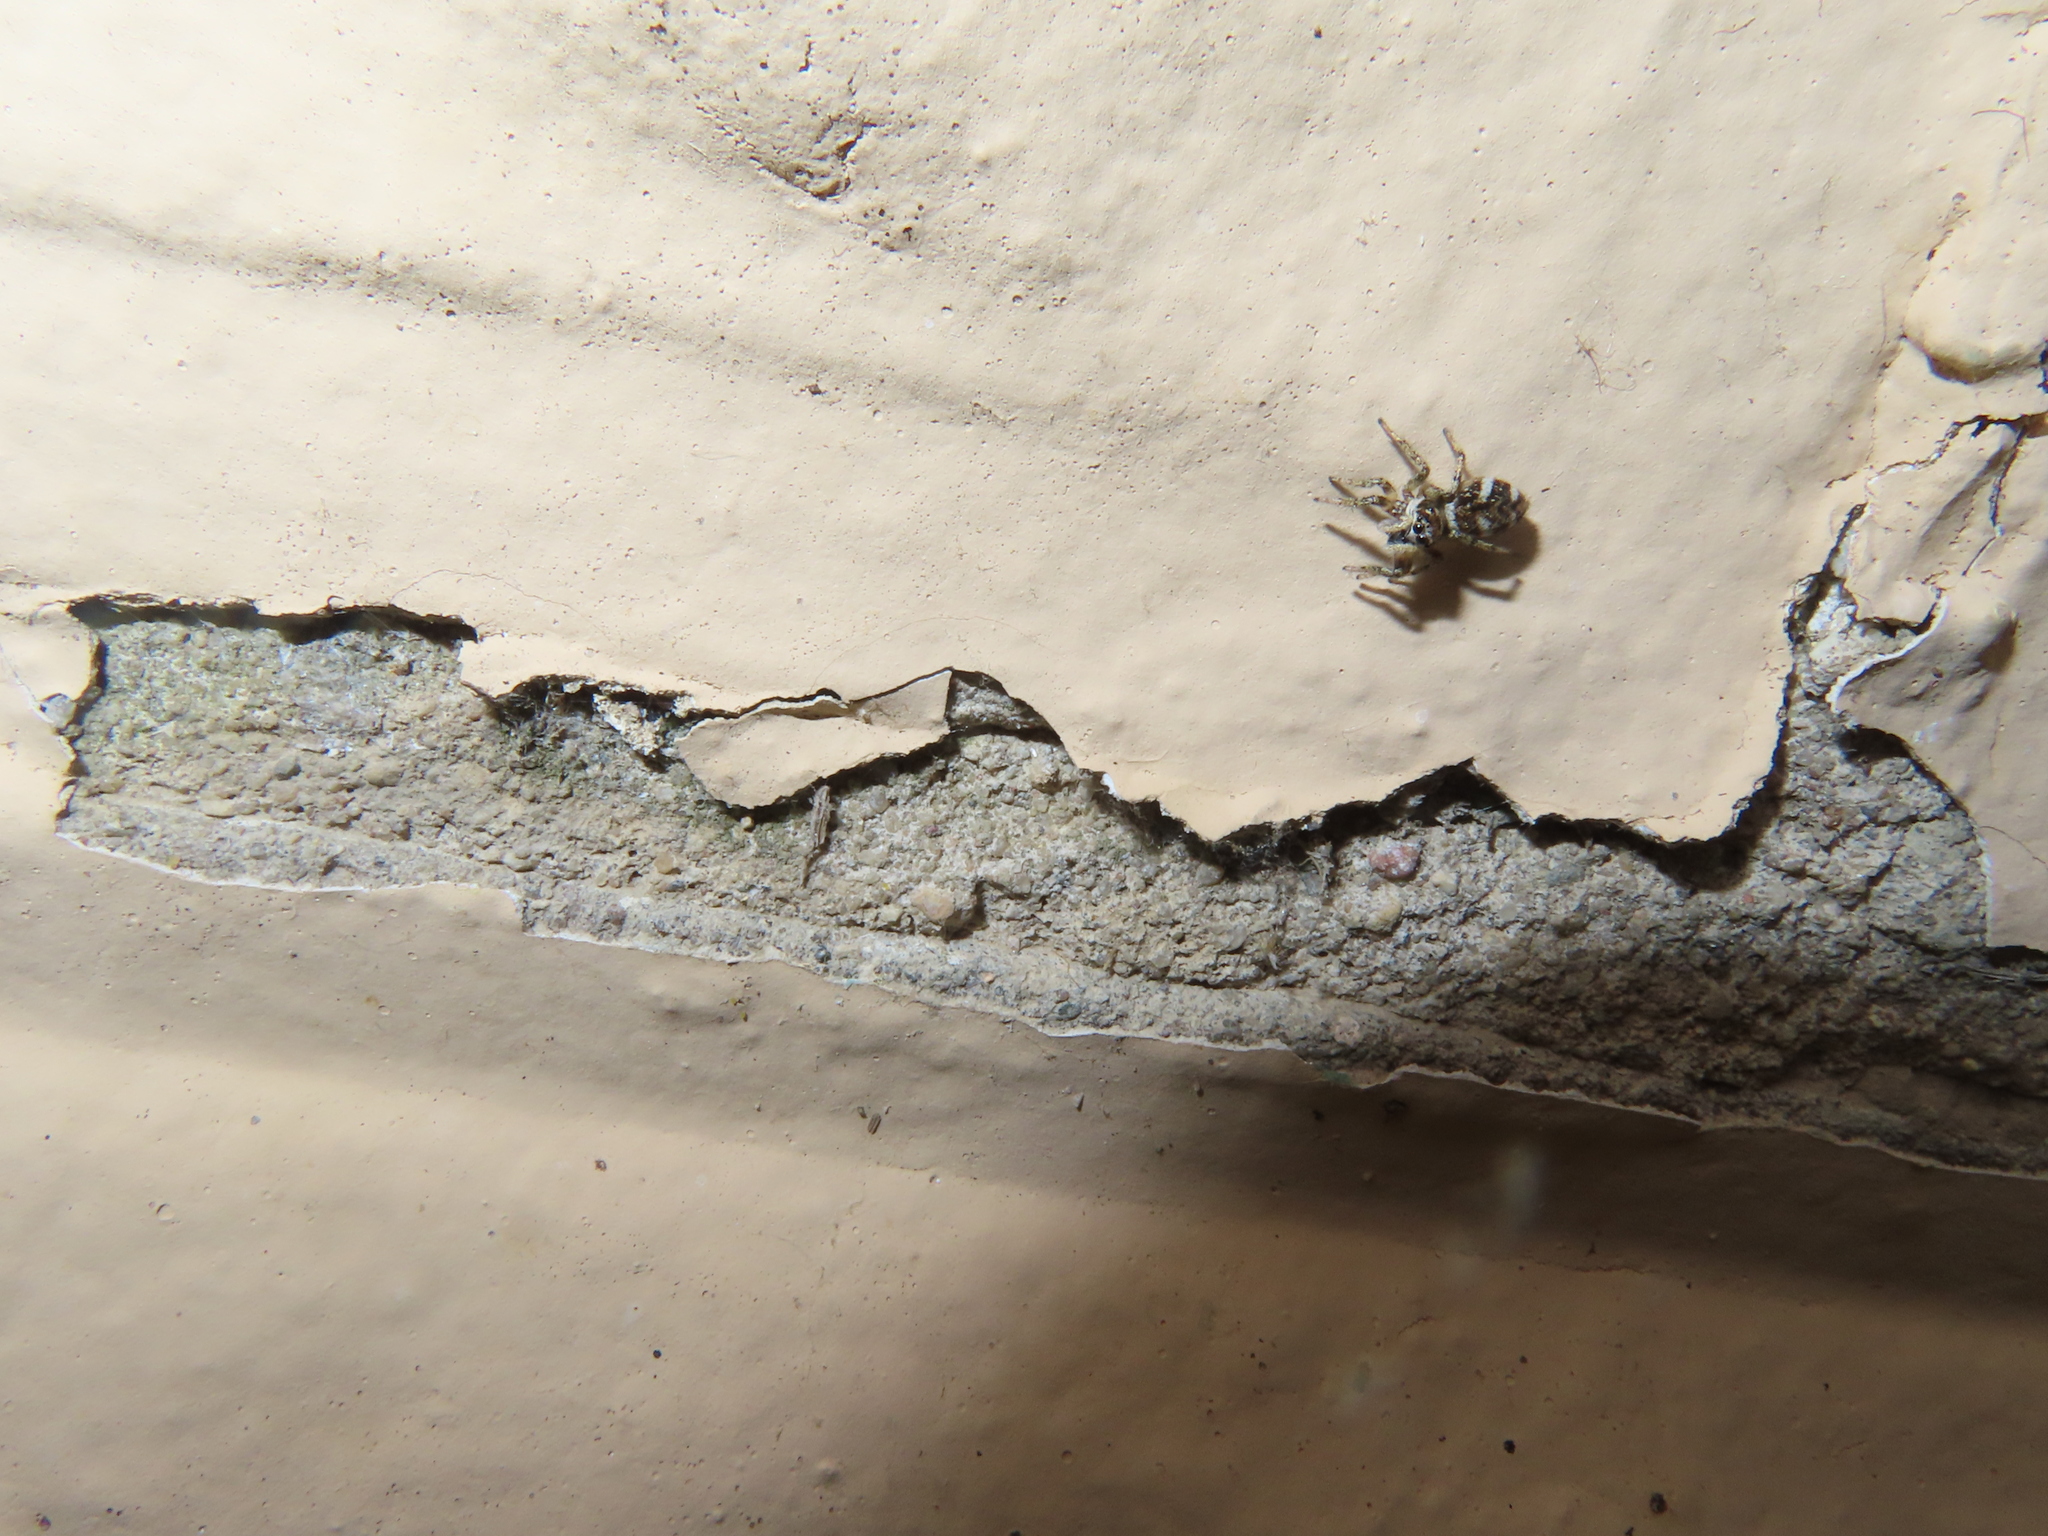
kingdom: Animalia
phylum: Arthropoda
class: Arachnida
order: Araneae
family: Salticidae
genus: Salticus
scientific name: Salticus scenicus
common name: Zebra jumper
